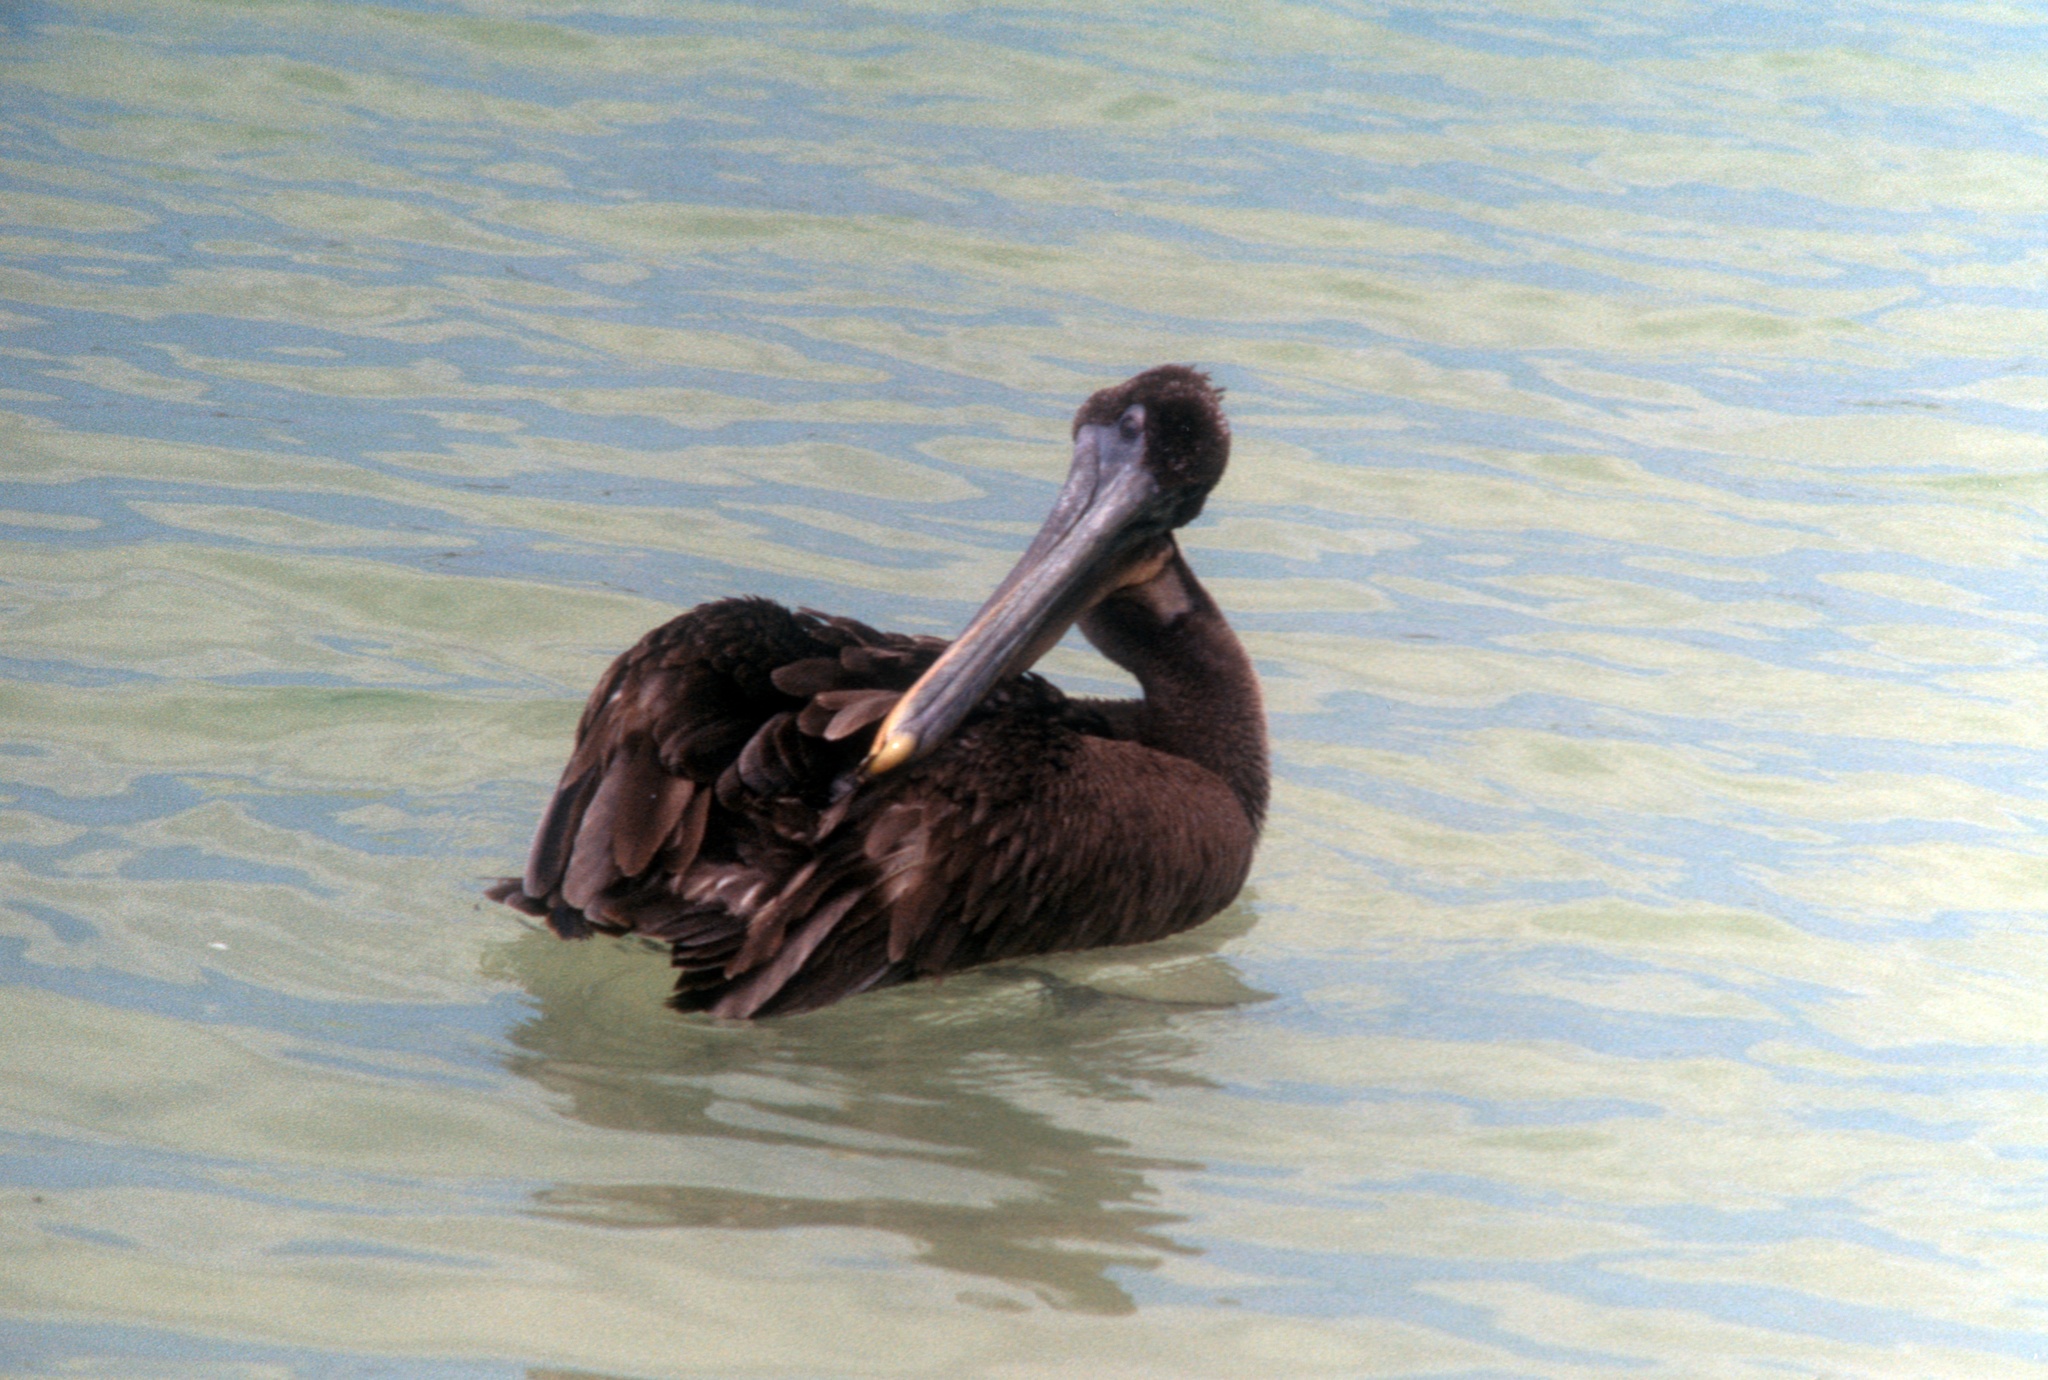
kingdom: Animalia
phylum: Chordata
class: Aves
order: Pelecaniformes
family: Pelecanidae
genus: Pelecanus
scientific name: Pelecanus occidentalis
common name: Brown pelican
